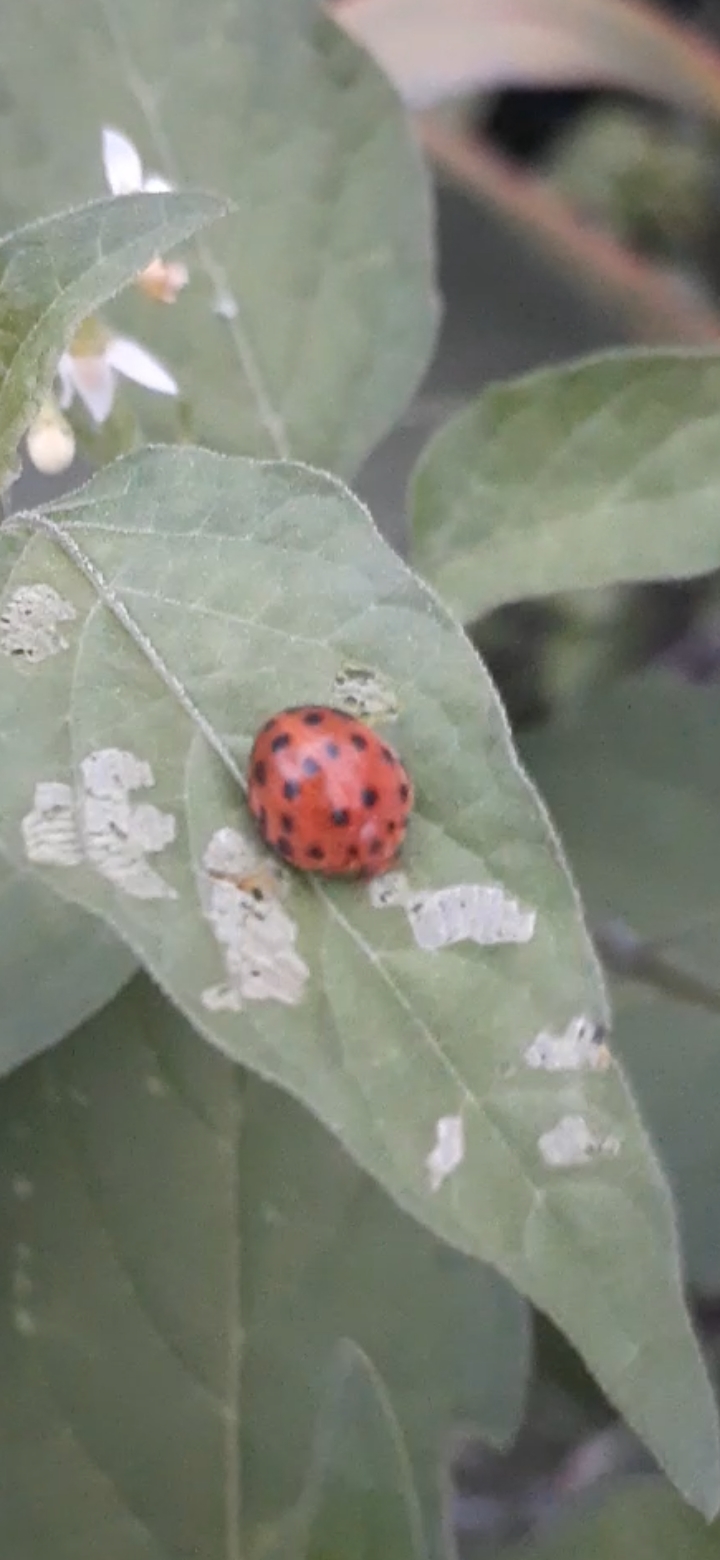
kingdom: Animalia
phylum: Arthropoda
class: Insecta
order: Coleoptera
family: Coccinellidae
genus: Henosepilachna
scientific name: Henosepilachna vigintioctopunctata
